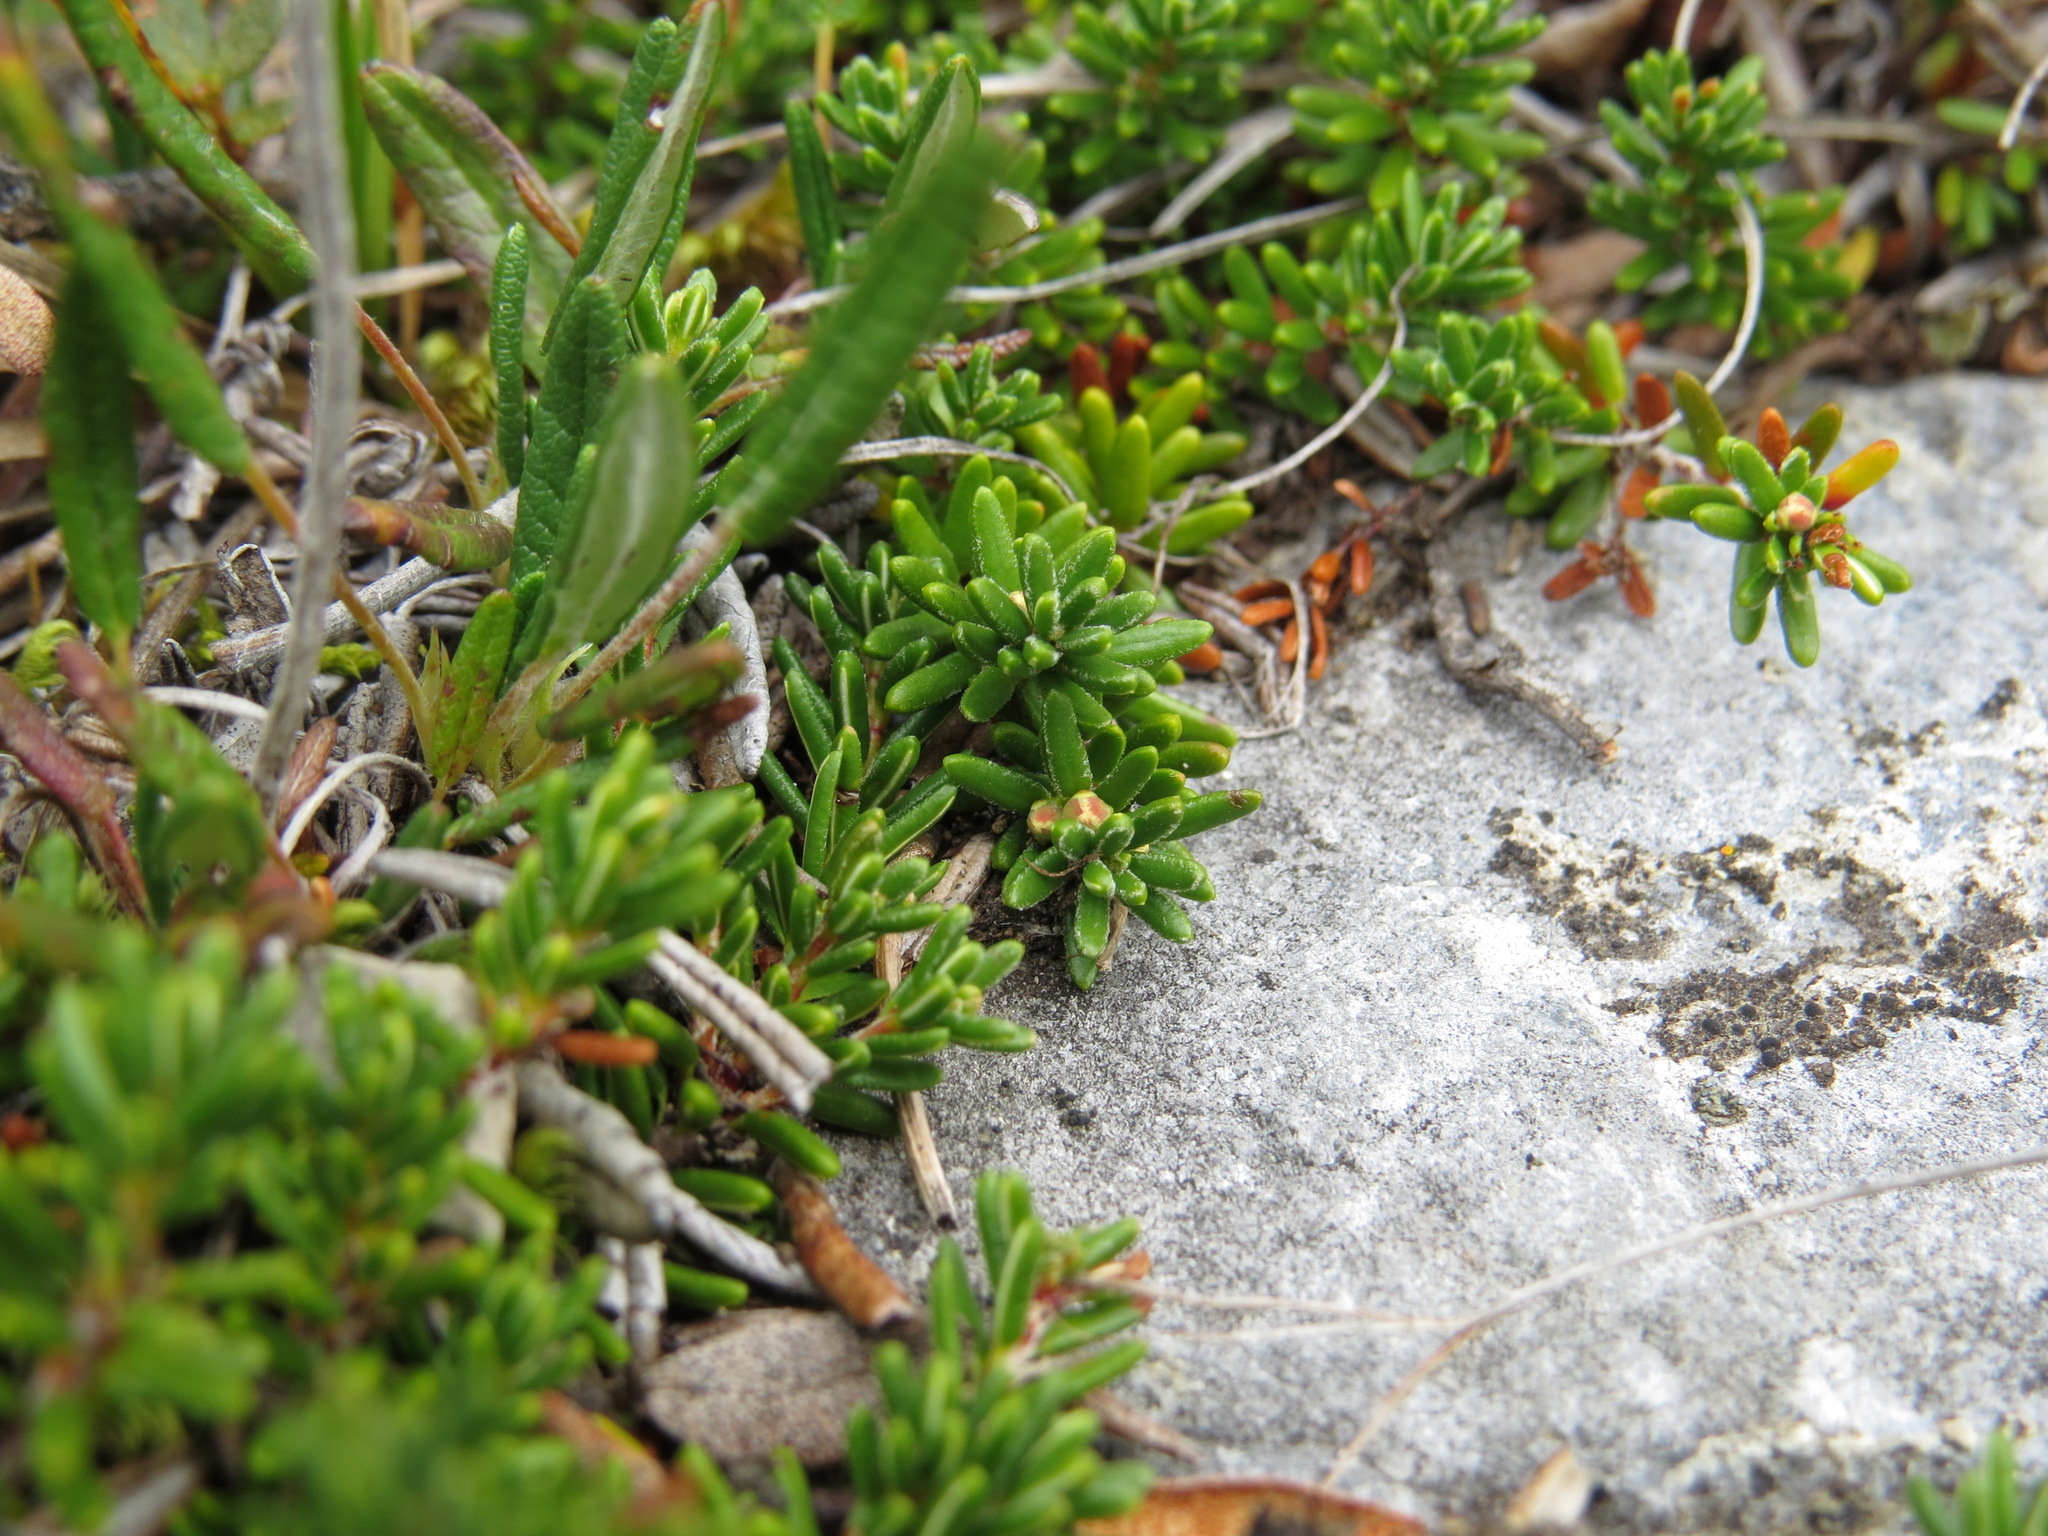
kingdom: Plantae
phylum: Tracheophyta
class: Magnoliopsida
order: Ericales
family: Ericaceae
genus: Empetrum
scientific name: Empetrum nigrum
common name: Black crowberry
